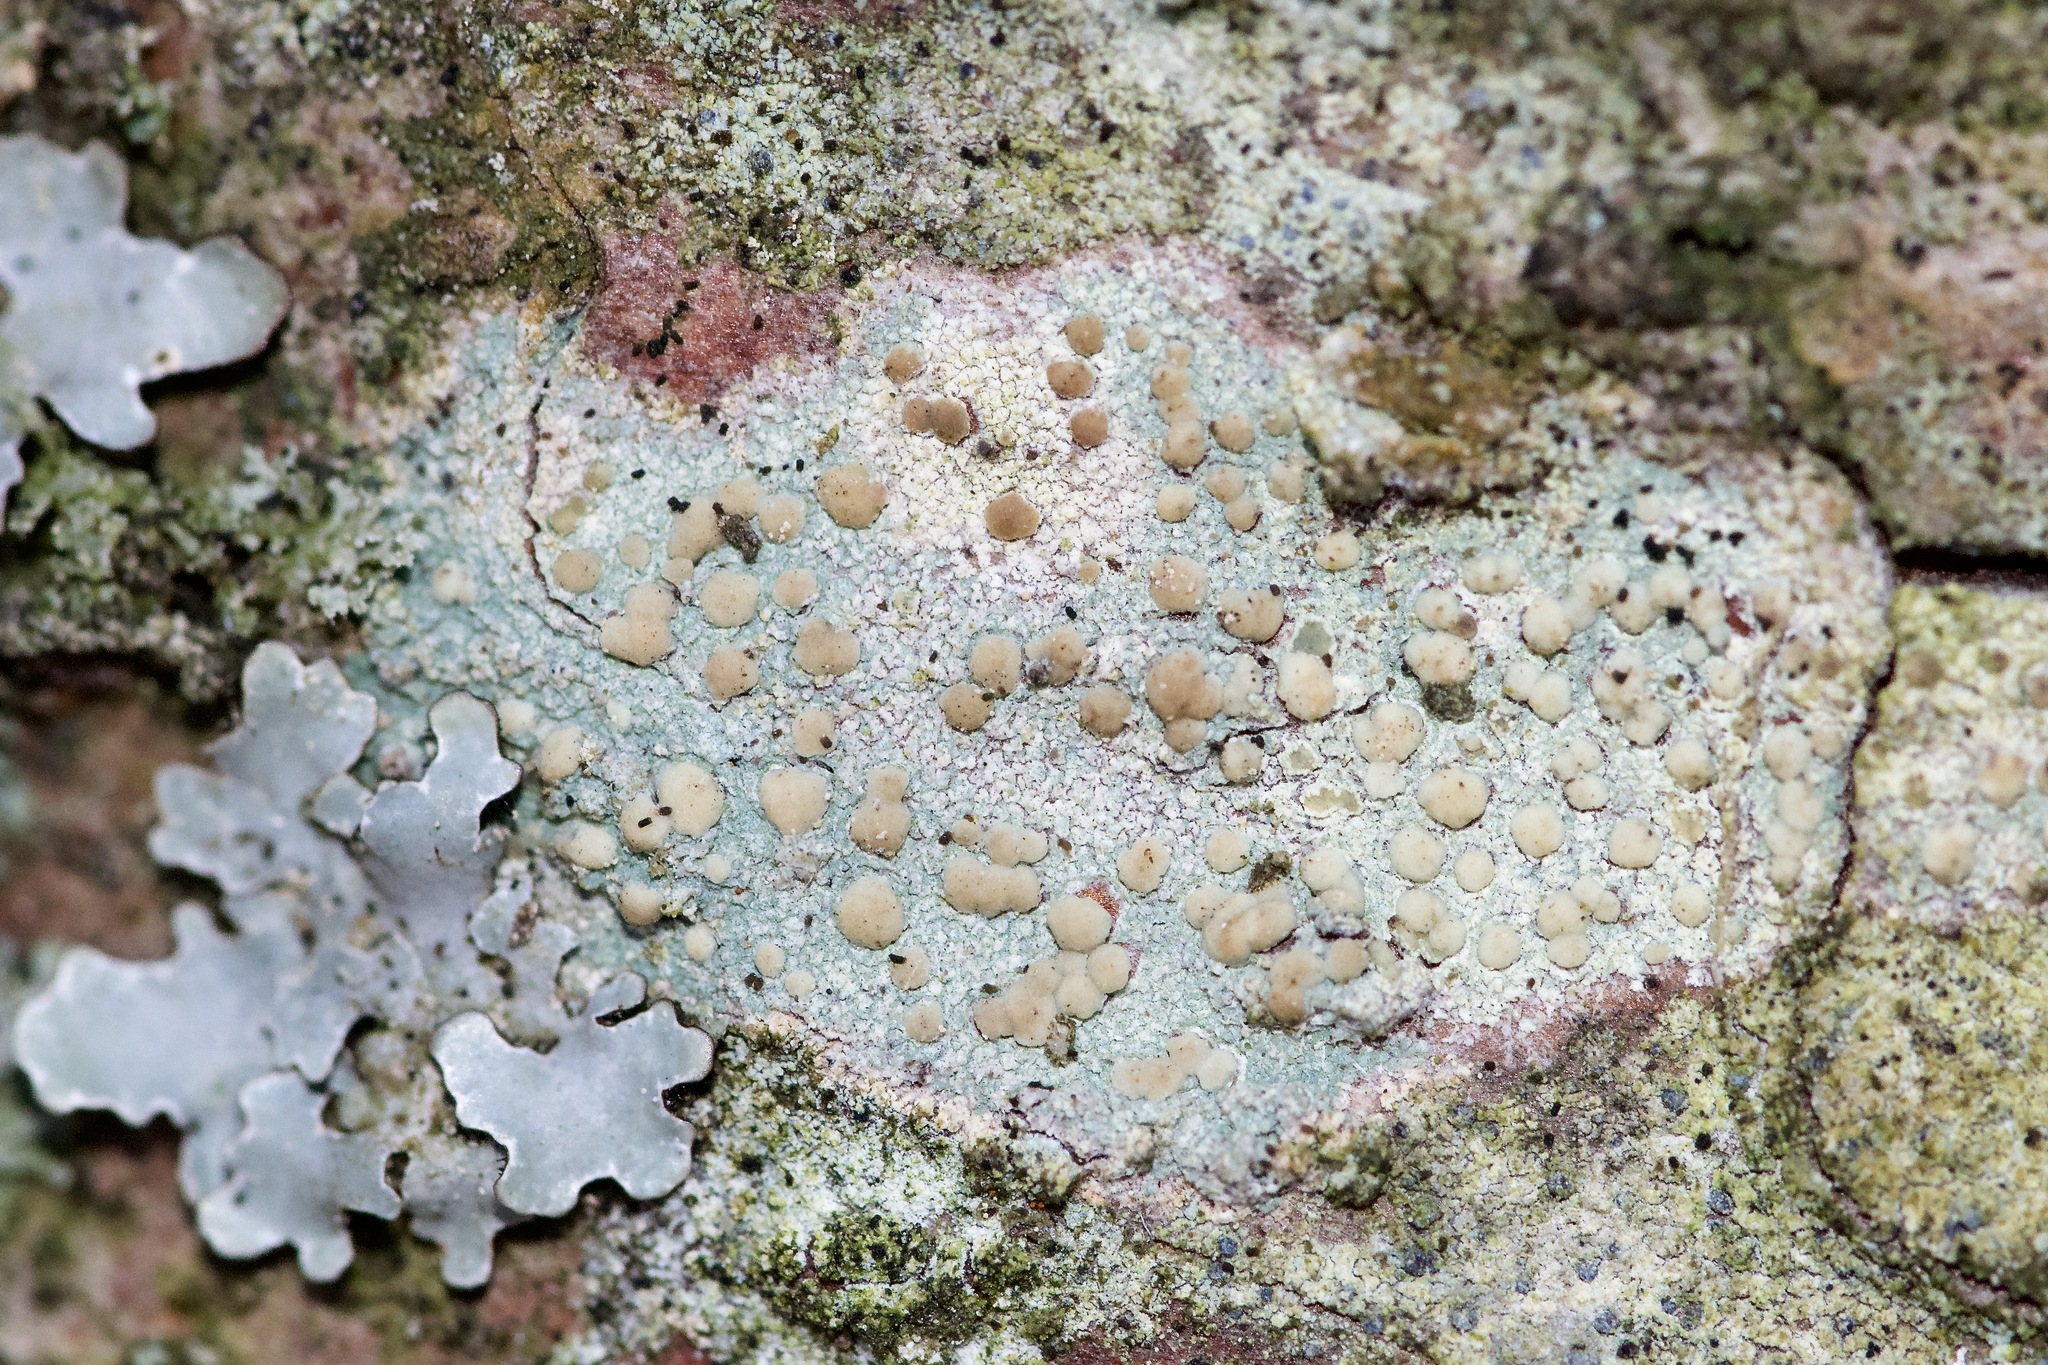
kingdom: Fungi
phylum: Ascomycota
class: Lecanoromycetes
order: Lecanorales
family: Lecanoraceae
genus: Lecanora
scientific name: Lecanora symmicta
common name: Fused rim lichen
